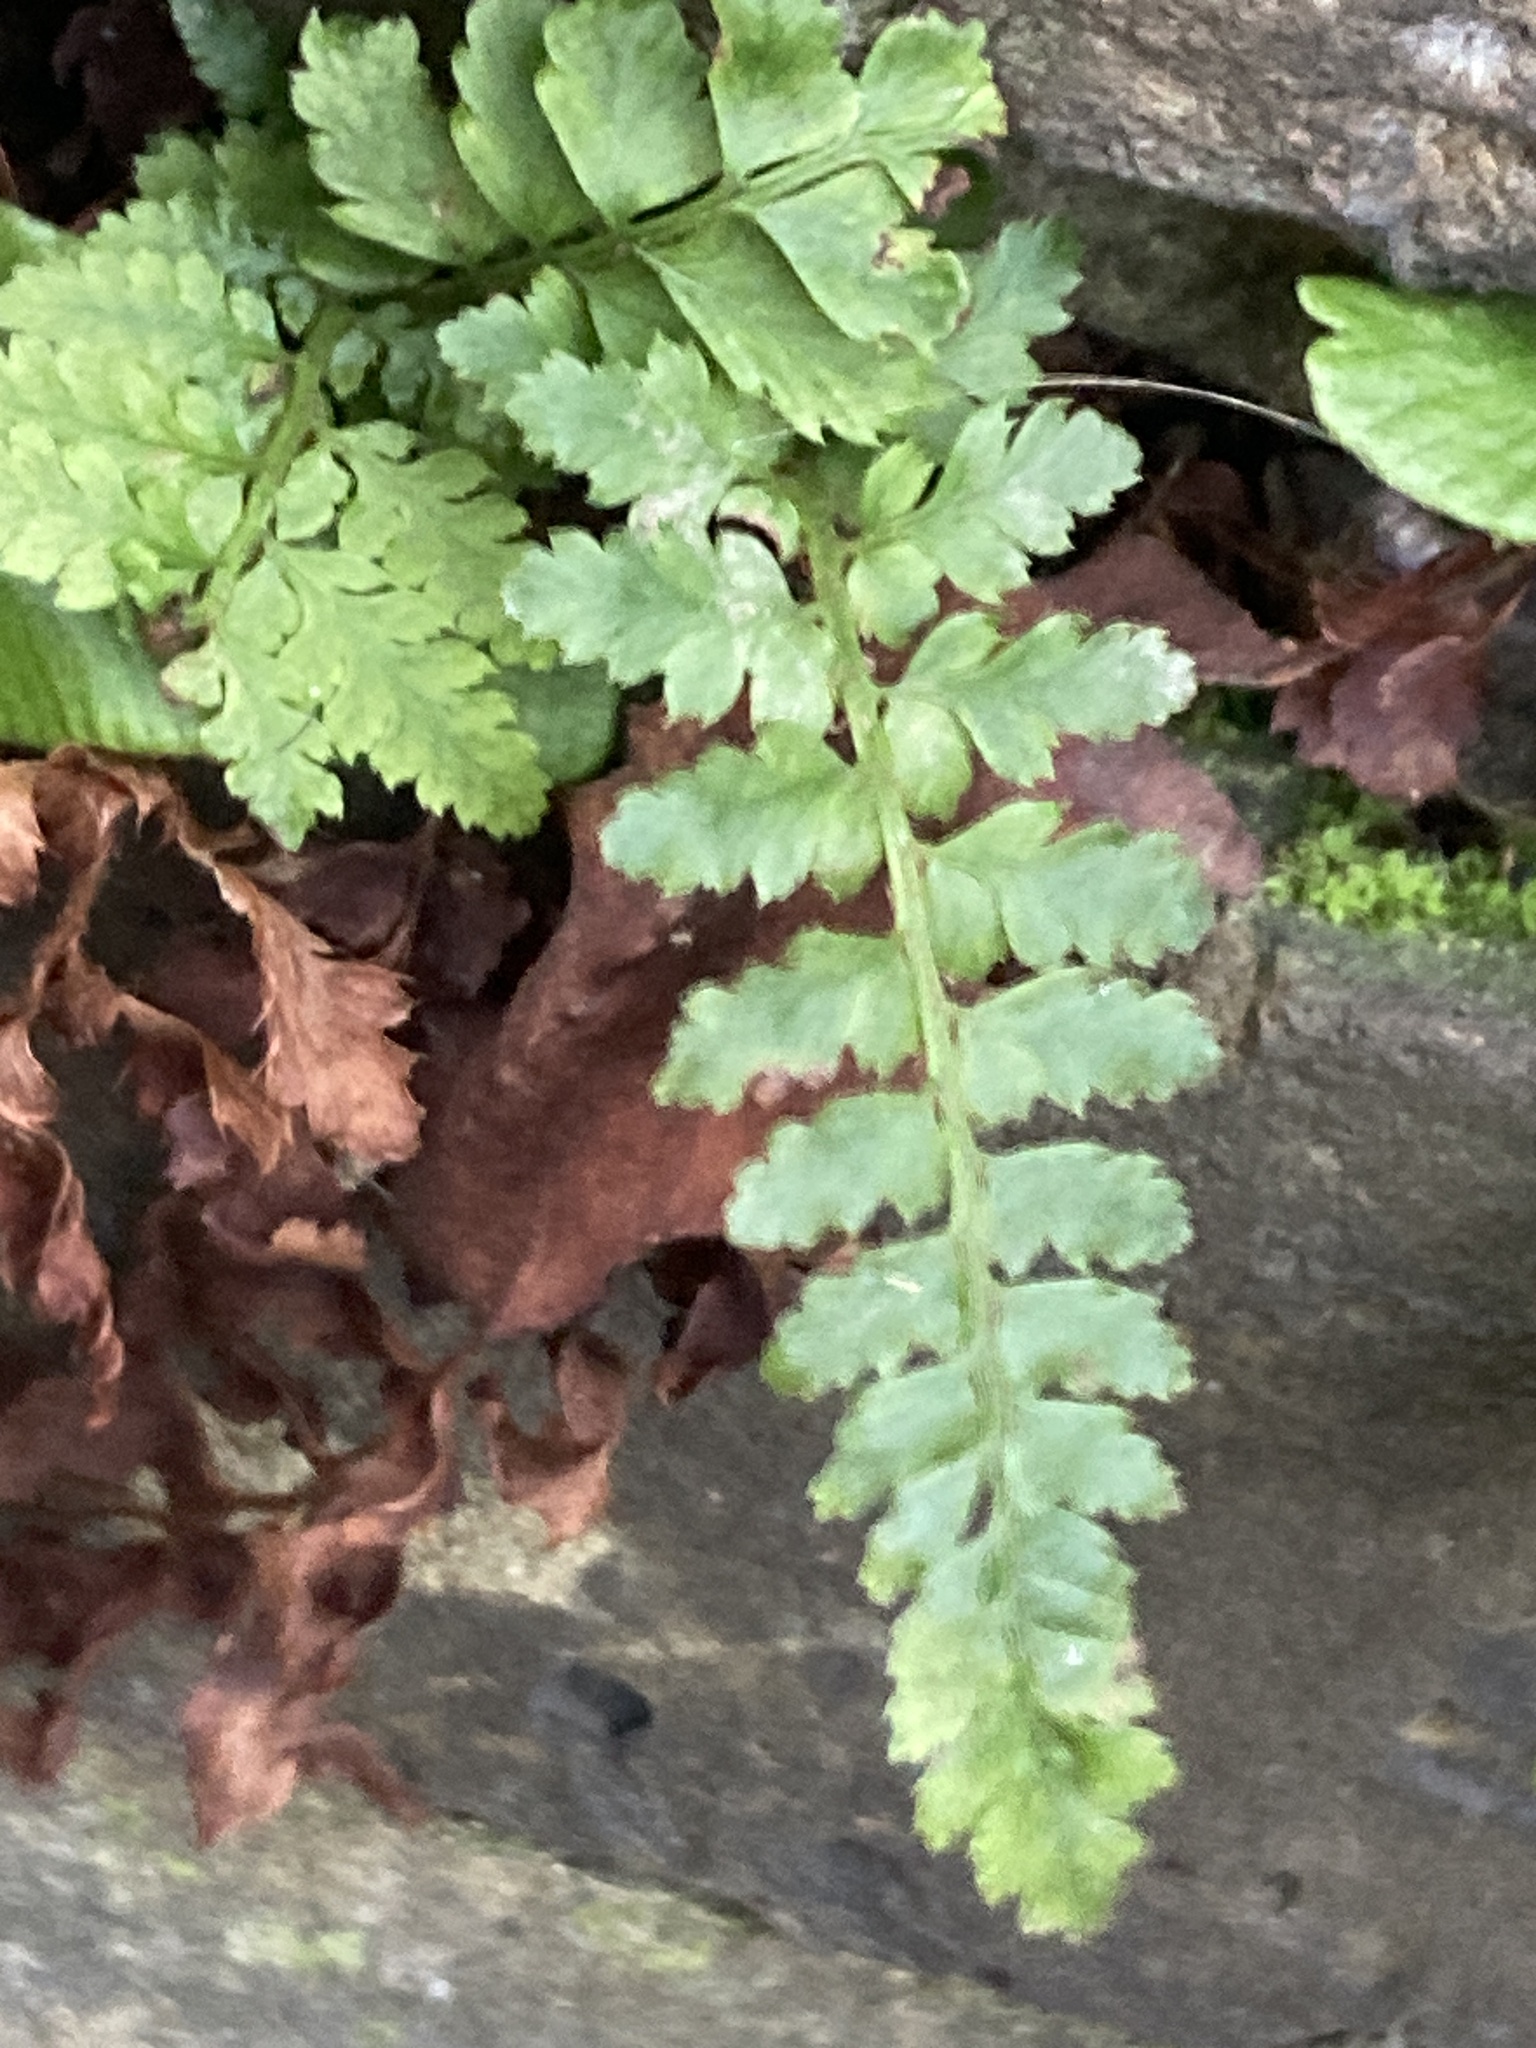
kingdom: Plantae
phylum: Tracheophyta
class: Polypodiopsida
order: Polypodiales
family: Dryopteridaceae
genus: Polystichum
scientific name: Polystichum setiferum
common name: Soft shield-fern
